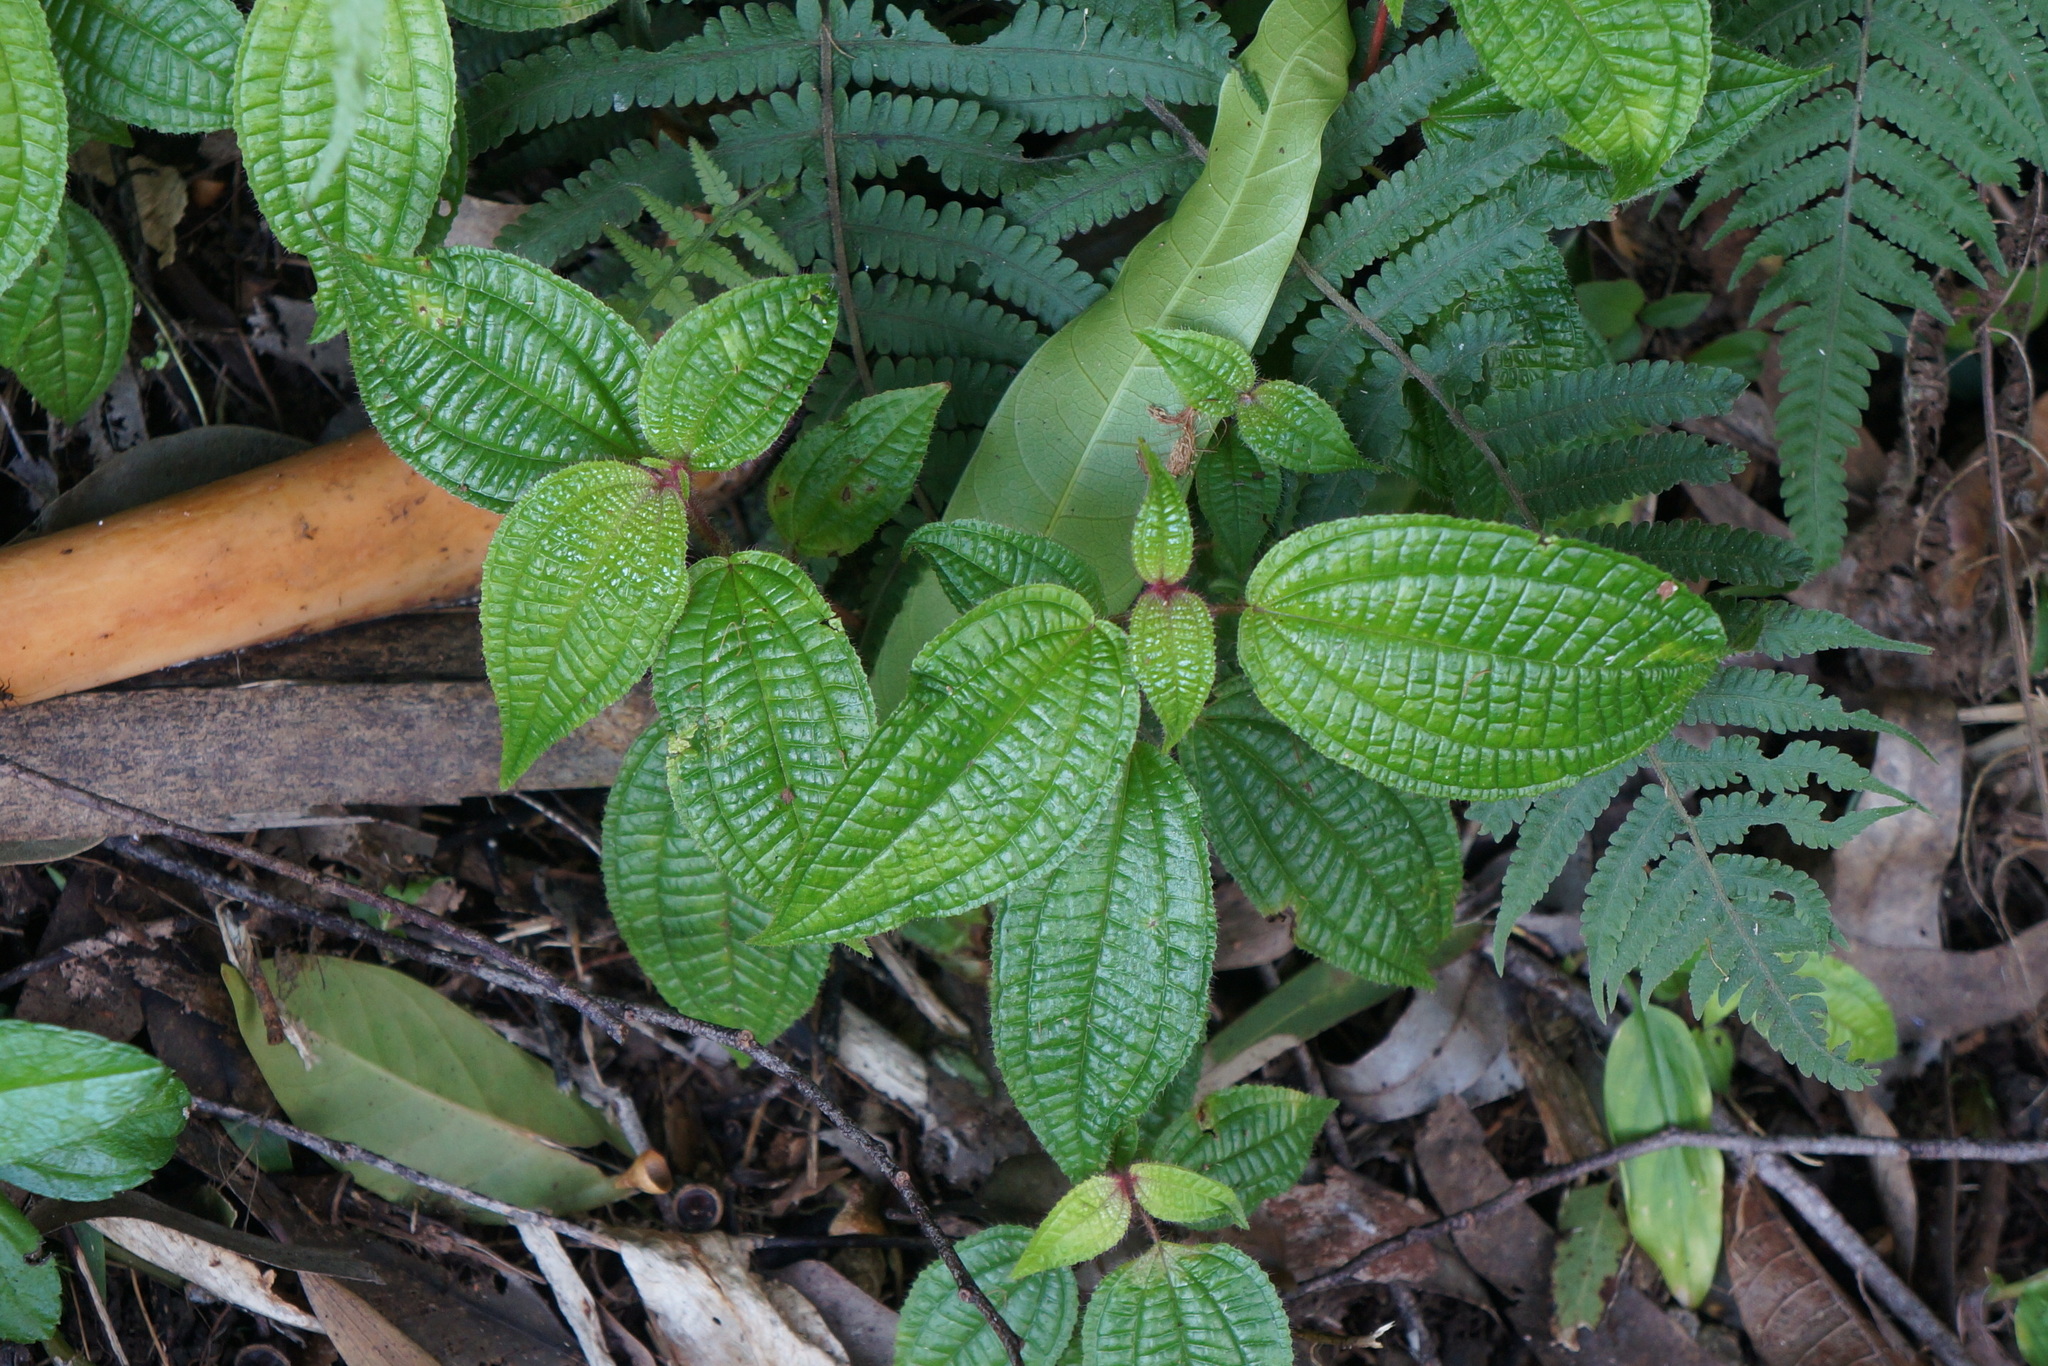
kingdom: Plantae
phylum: Tracheophyta
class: Magnoliopsida
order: Myrtales
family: Melastomataceae
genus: Miconia
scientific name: Miconia crenata
